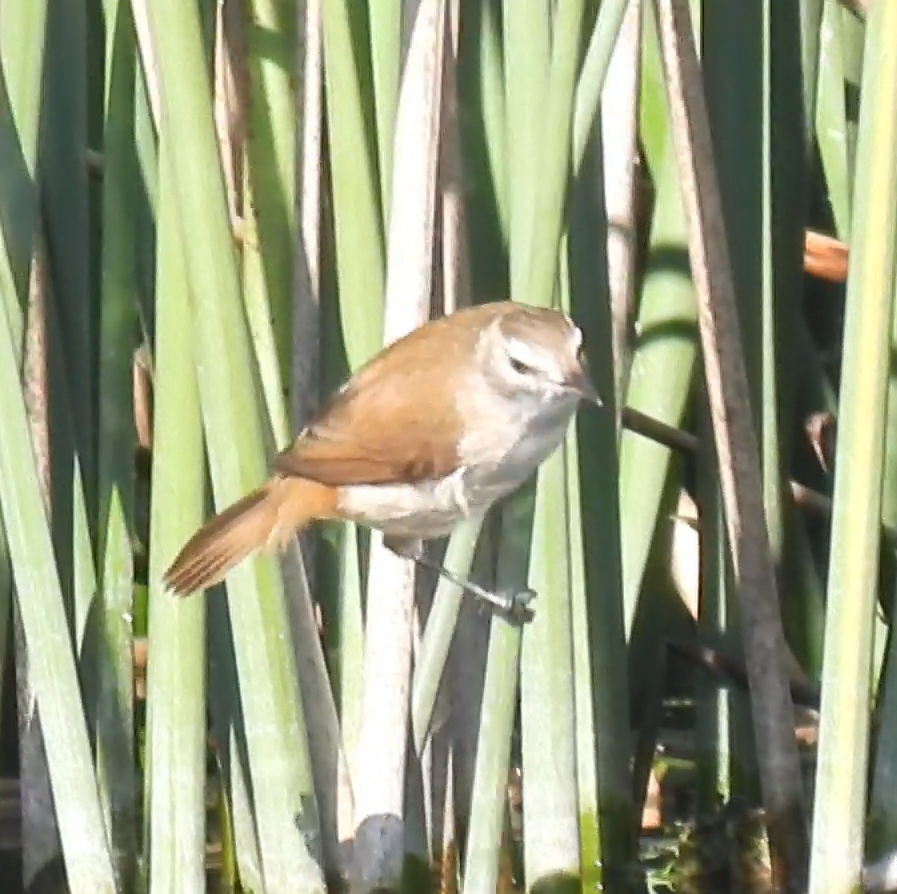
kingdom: Animalia
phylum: Chordata
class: Aves
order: Passeriformes
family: Acrocephalidae
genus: Acrocephalus
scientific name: Acrocephalus gracilirostris
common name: Lesser swamp warbler
